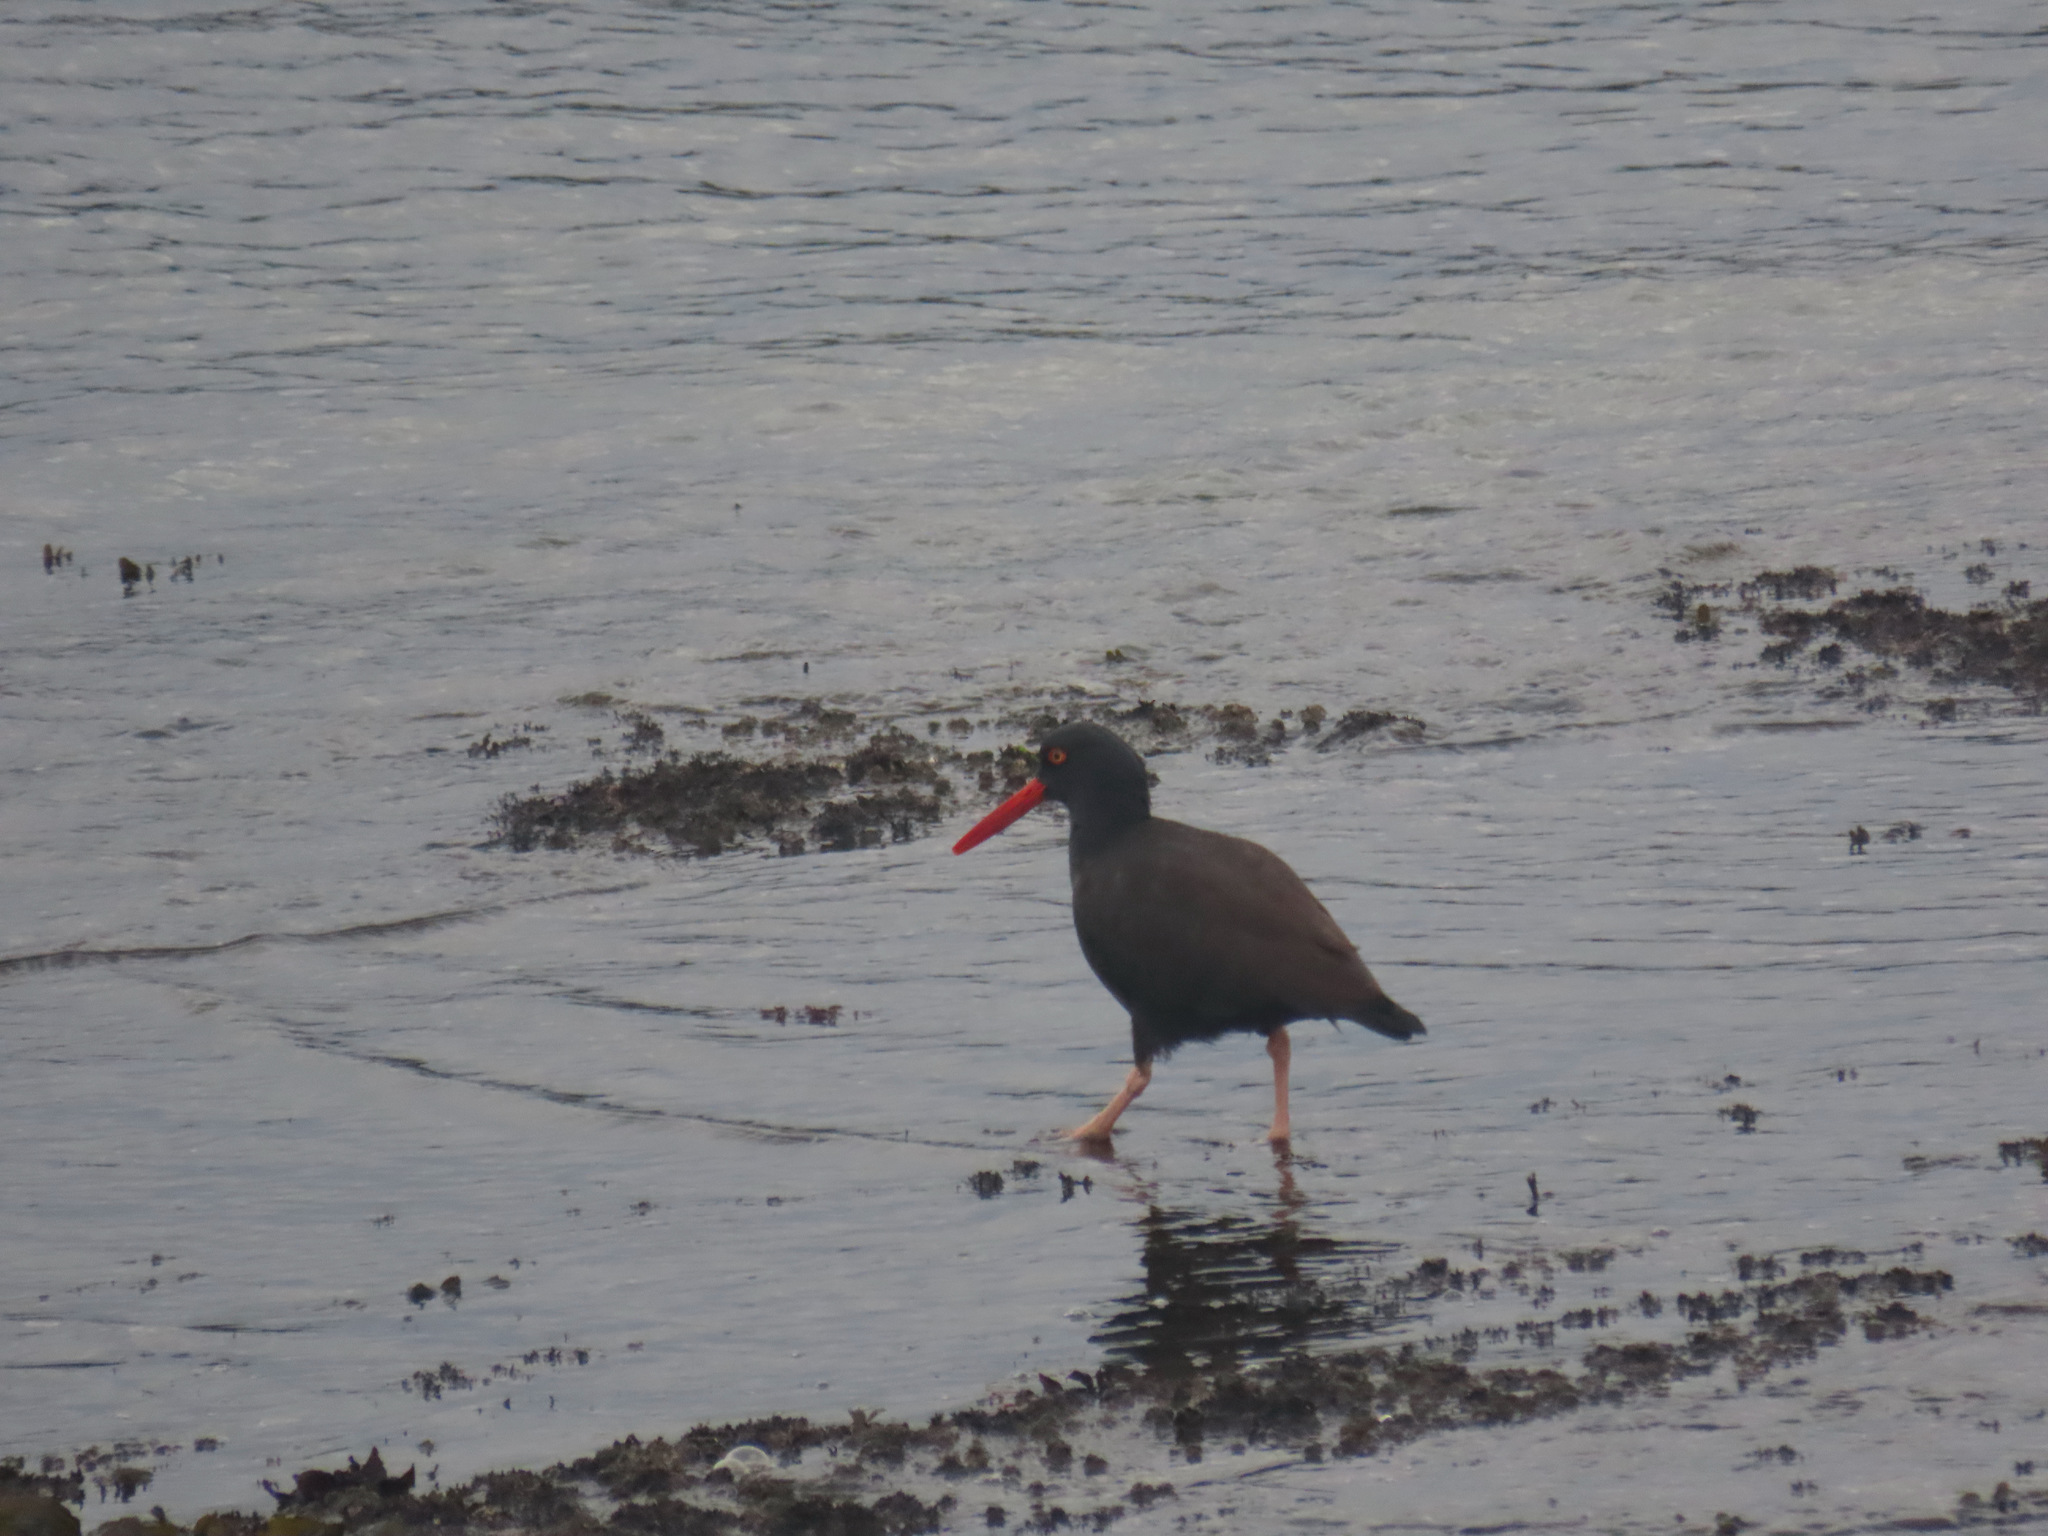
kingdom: Animalia
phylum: Chordata
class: Aves
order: Charadriiformes
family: Haematopodidae
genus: Haematopus
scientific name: Haematopus bachmani
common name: Black oystercatcher
